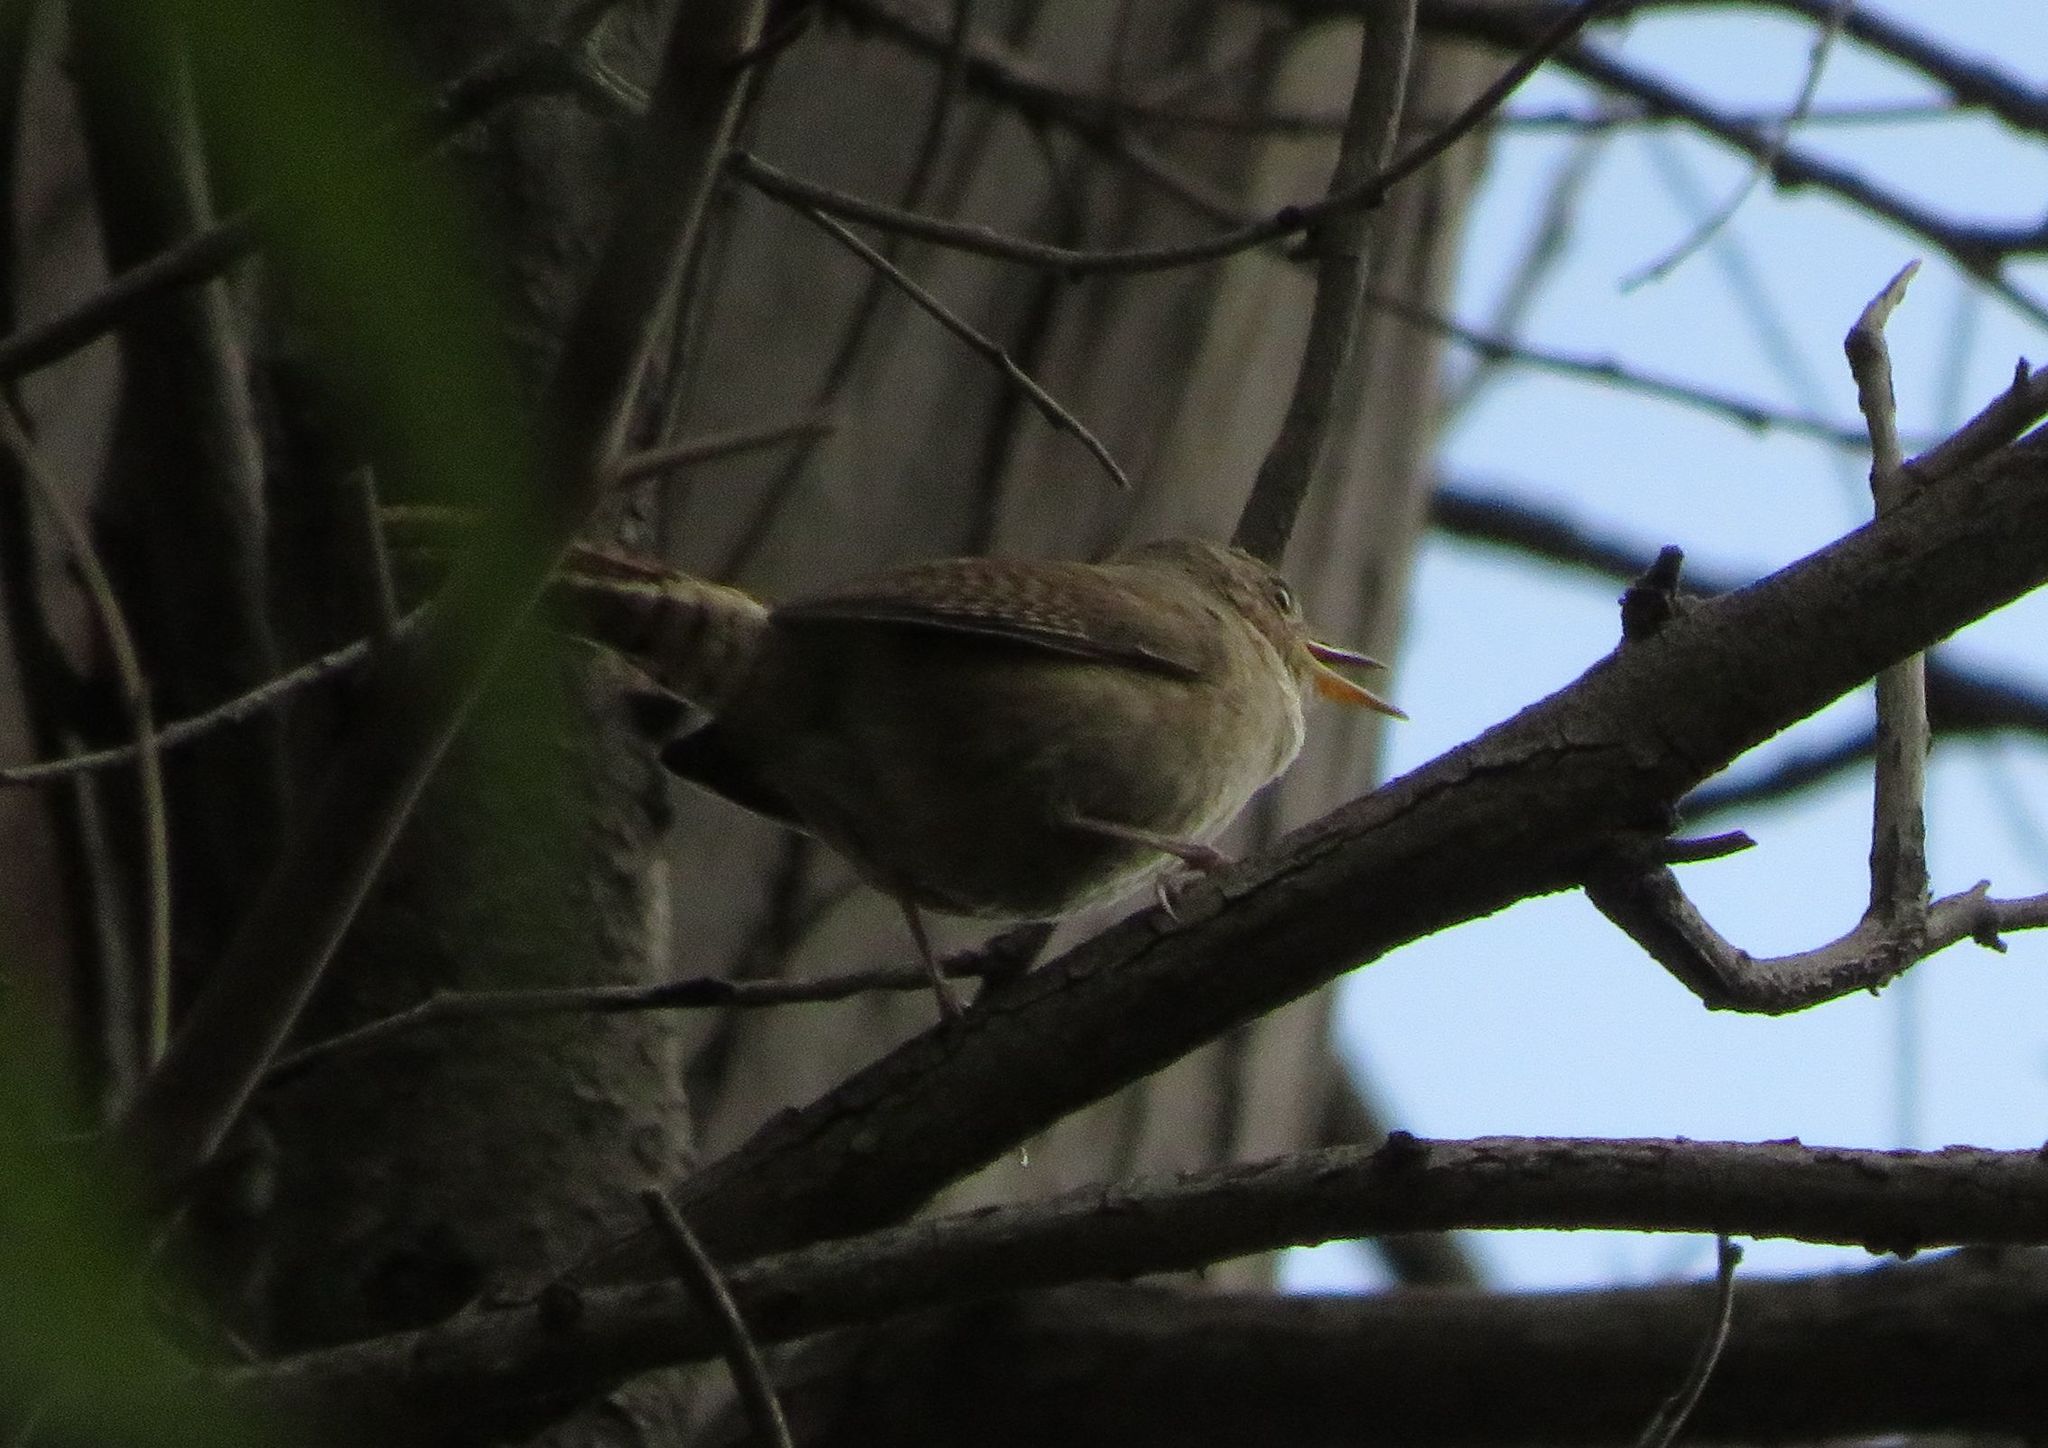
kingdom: Animalia
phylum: Chordata
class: Aves
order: Passeriformes
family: Troglodytidae
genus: Troglodytes
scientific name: Troglodytes aedon
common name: House wren
